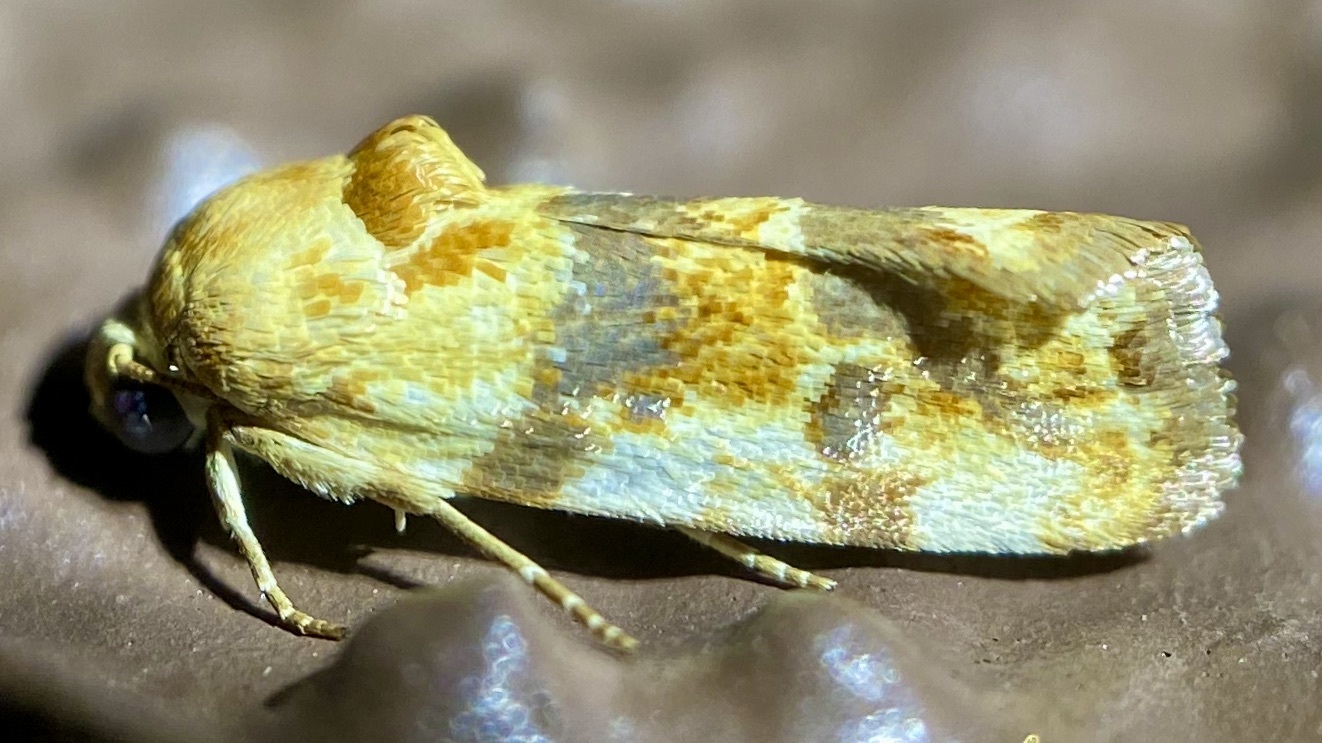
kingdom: Animalia
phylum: Arthropoda
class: Insecta
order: Lepidoptera
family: Noctuidae
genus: Acontia
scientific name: Acontia obatra
